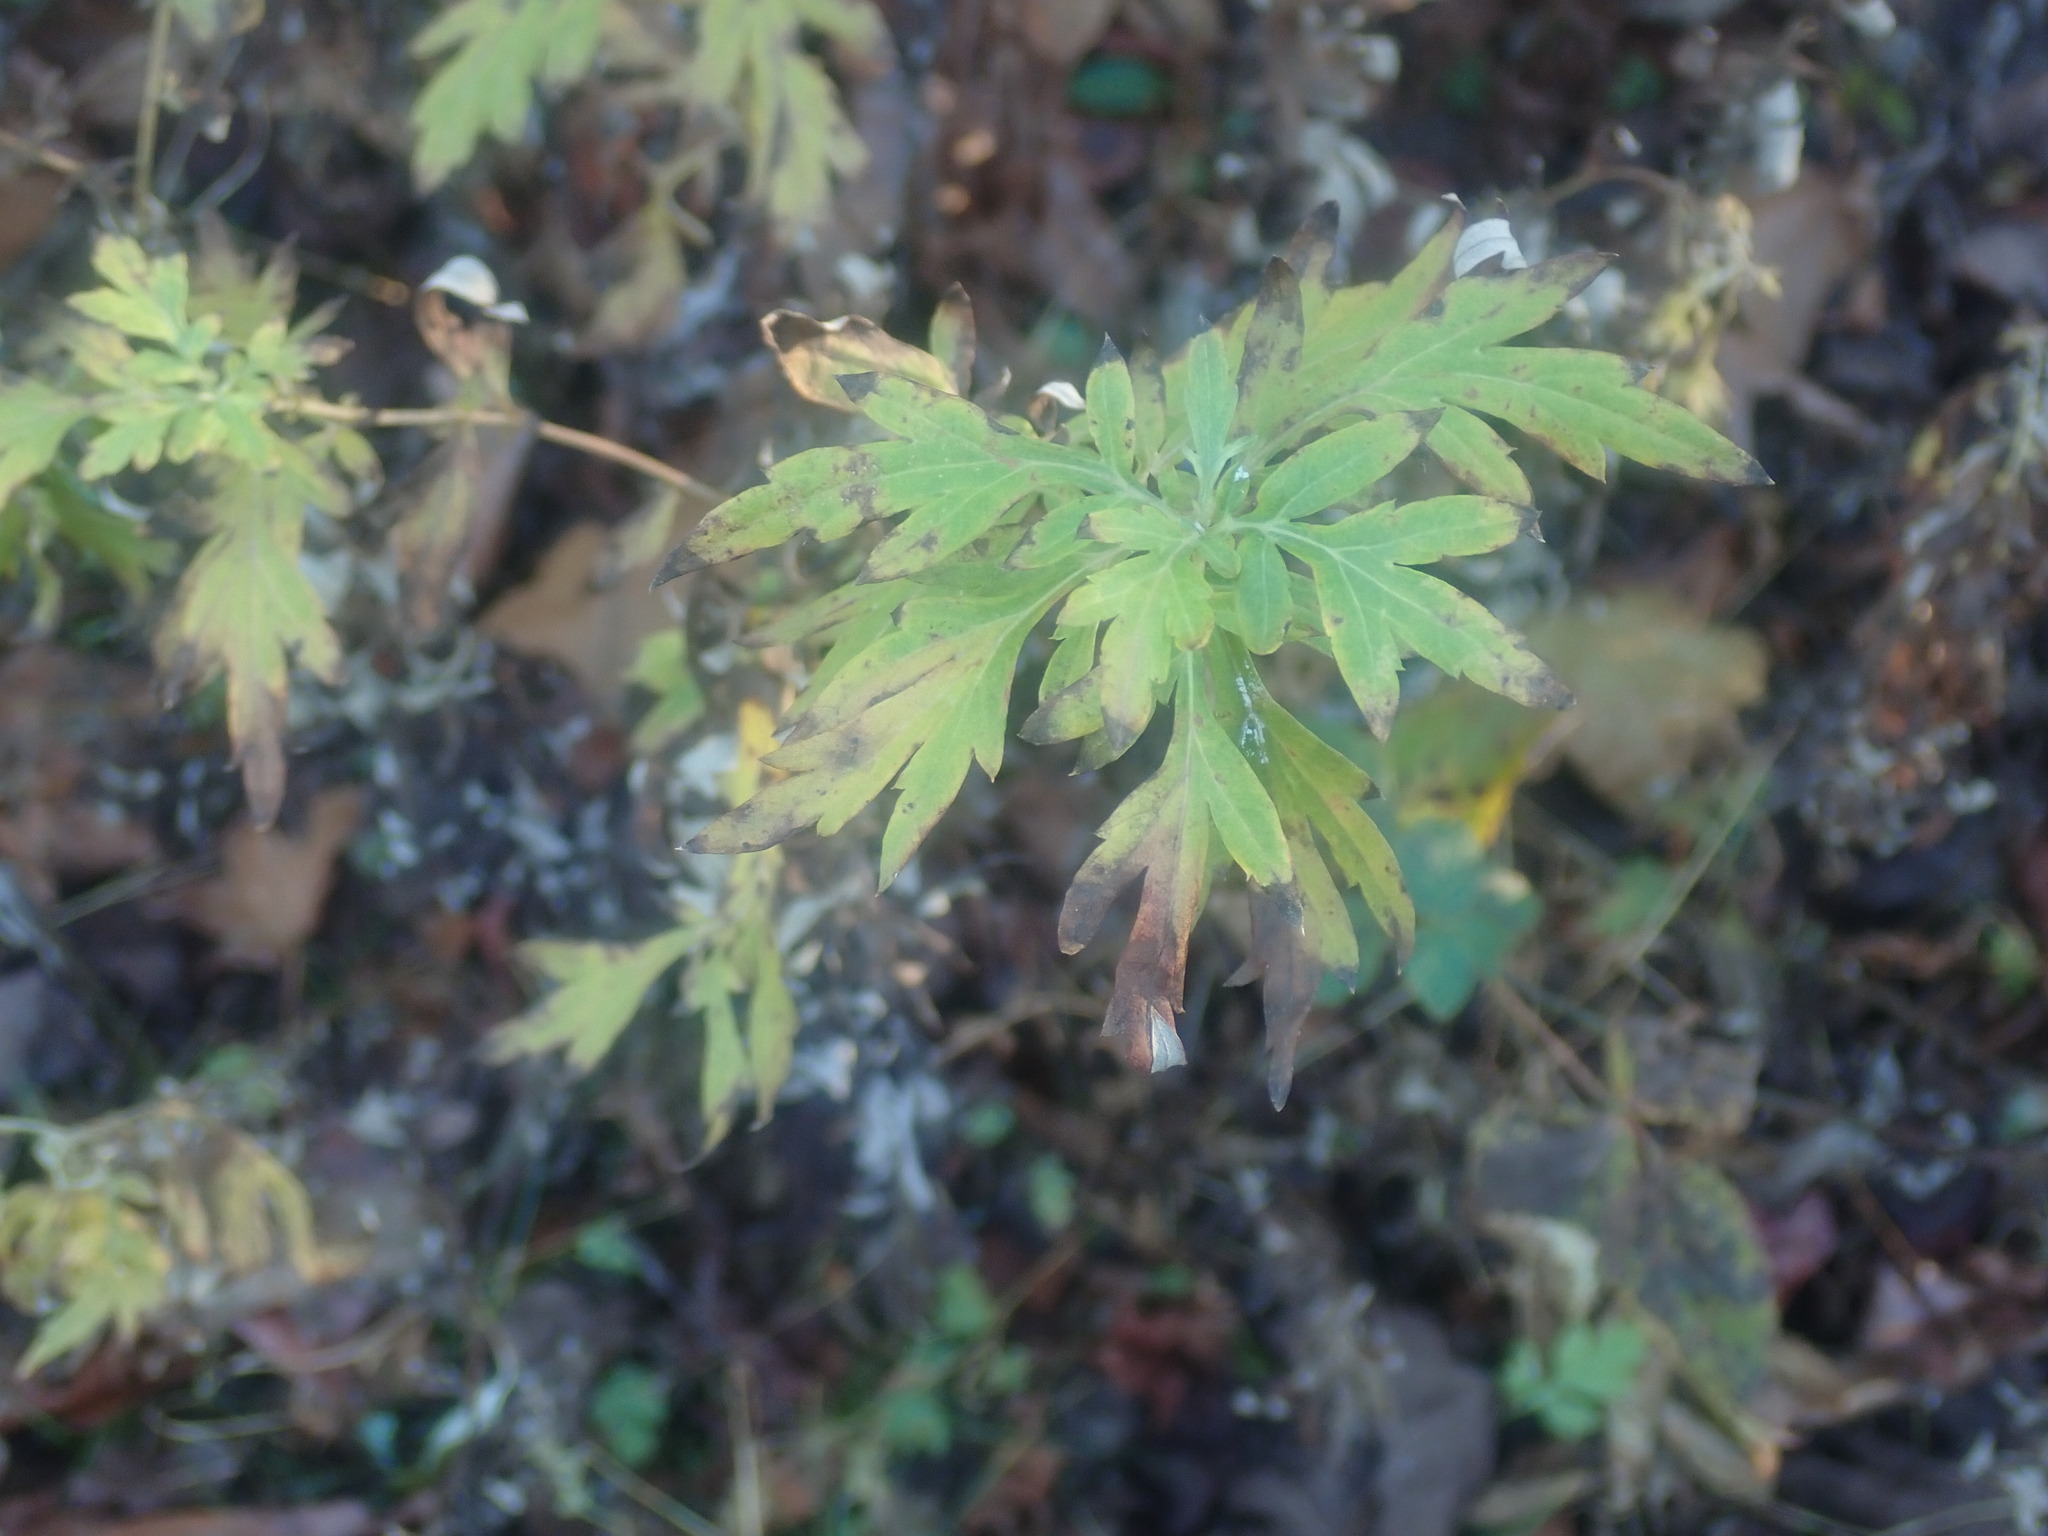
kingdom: Plantae
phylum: Tracheophyta
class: Magnoliopsida
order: Asterales
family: Asteraceae
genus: Artemisia
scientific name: Artemisia vulgaris
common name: Mugwort
